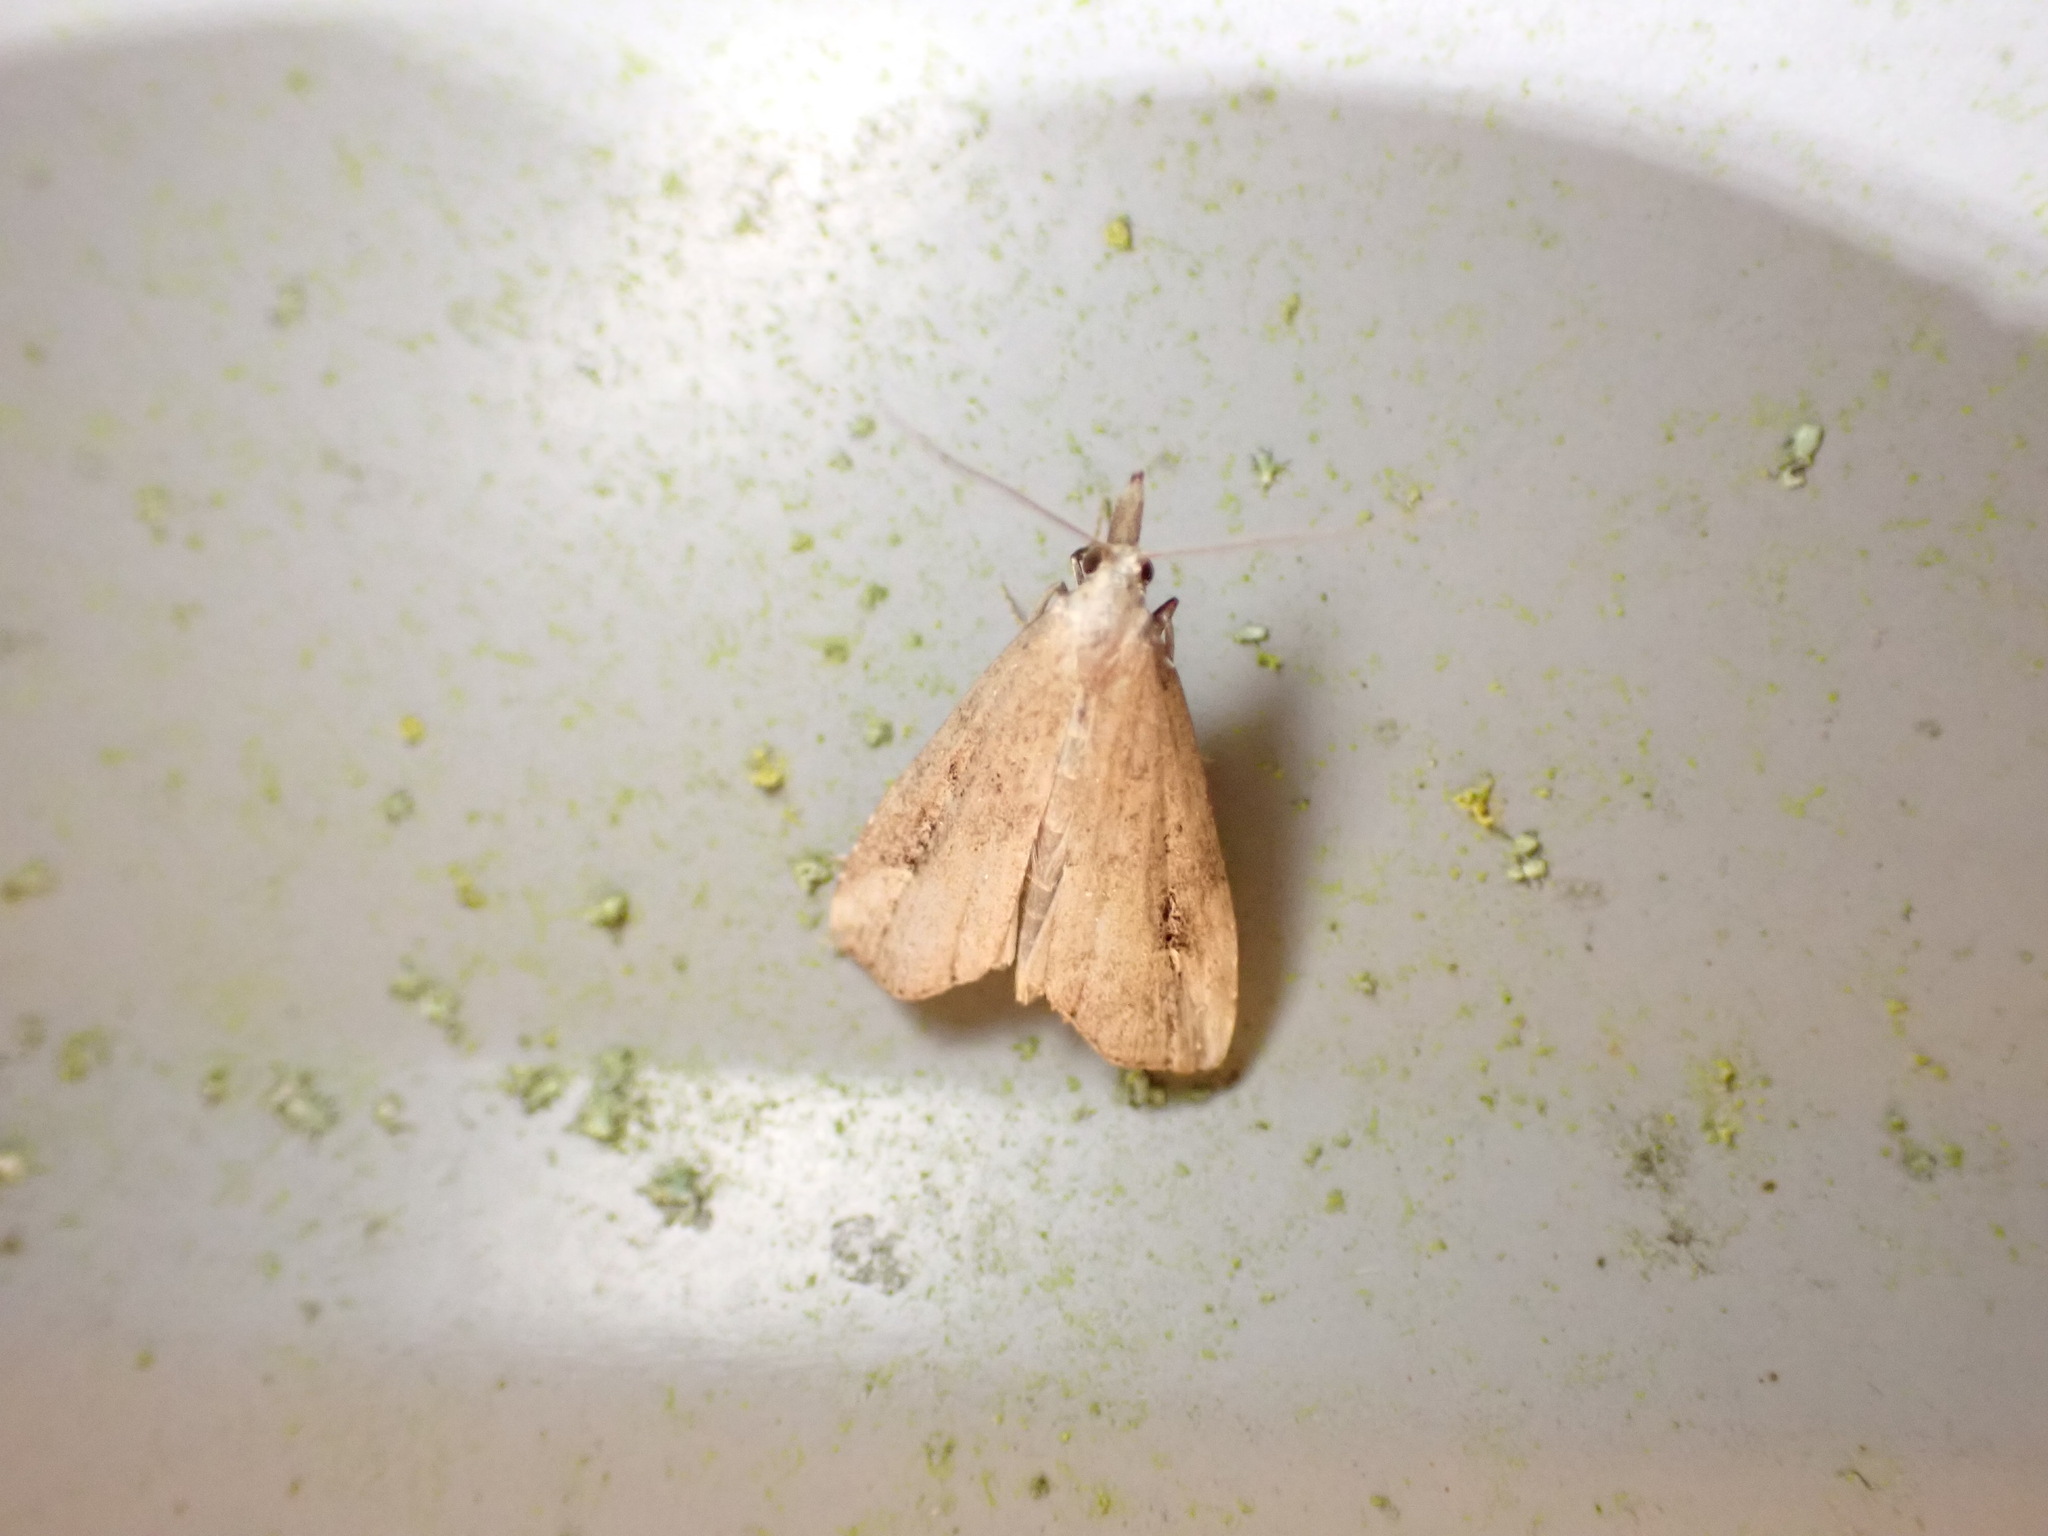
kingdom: Animalia
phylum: Arthropoda
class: Insecta
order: Lepidoptera
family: Erebidae
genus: Schrankia
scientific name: Schrankia costaestrigalis
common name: Pinion-streaked snout
